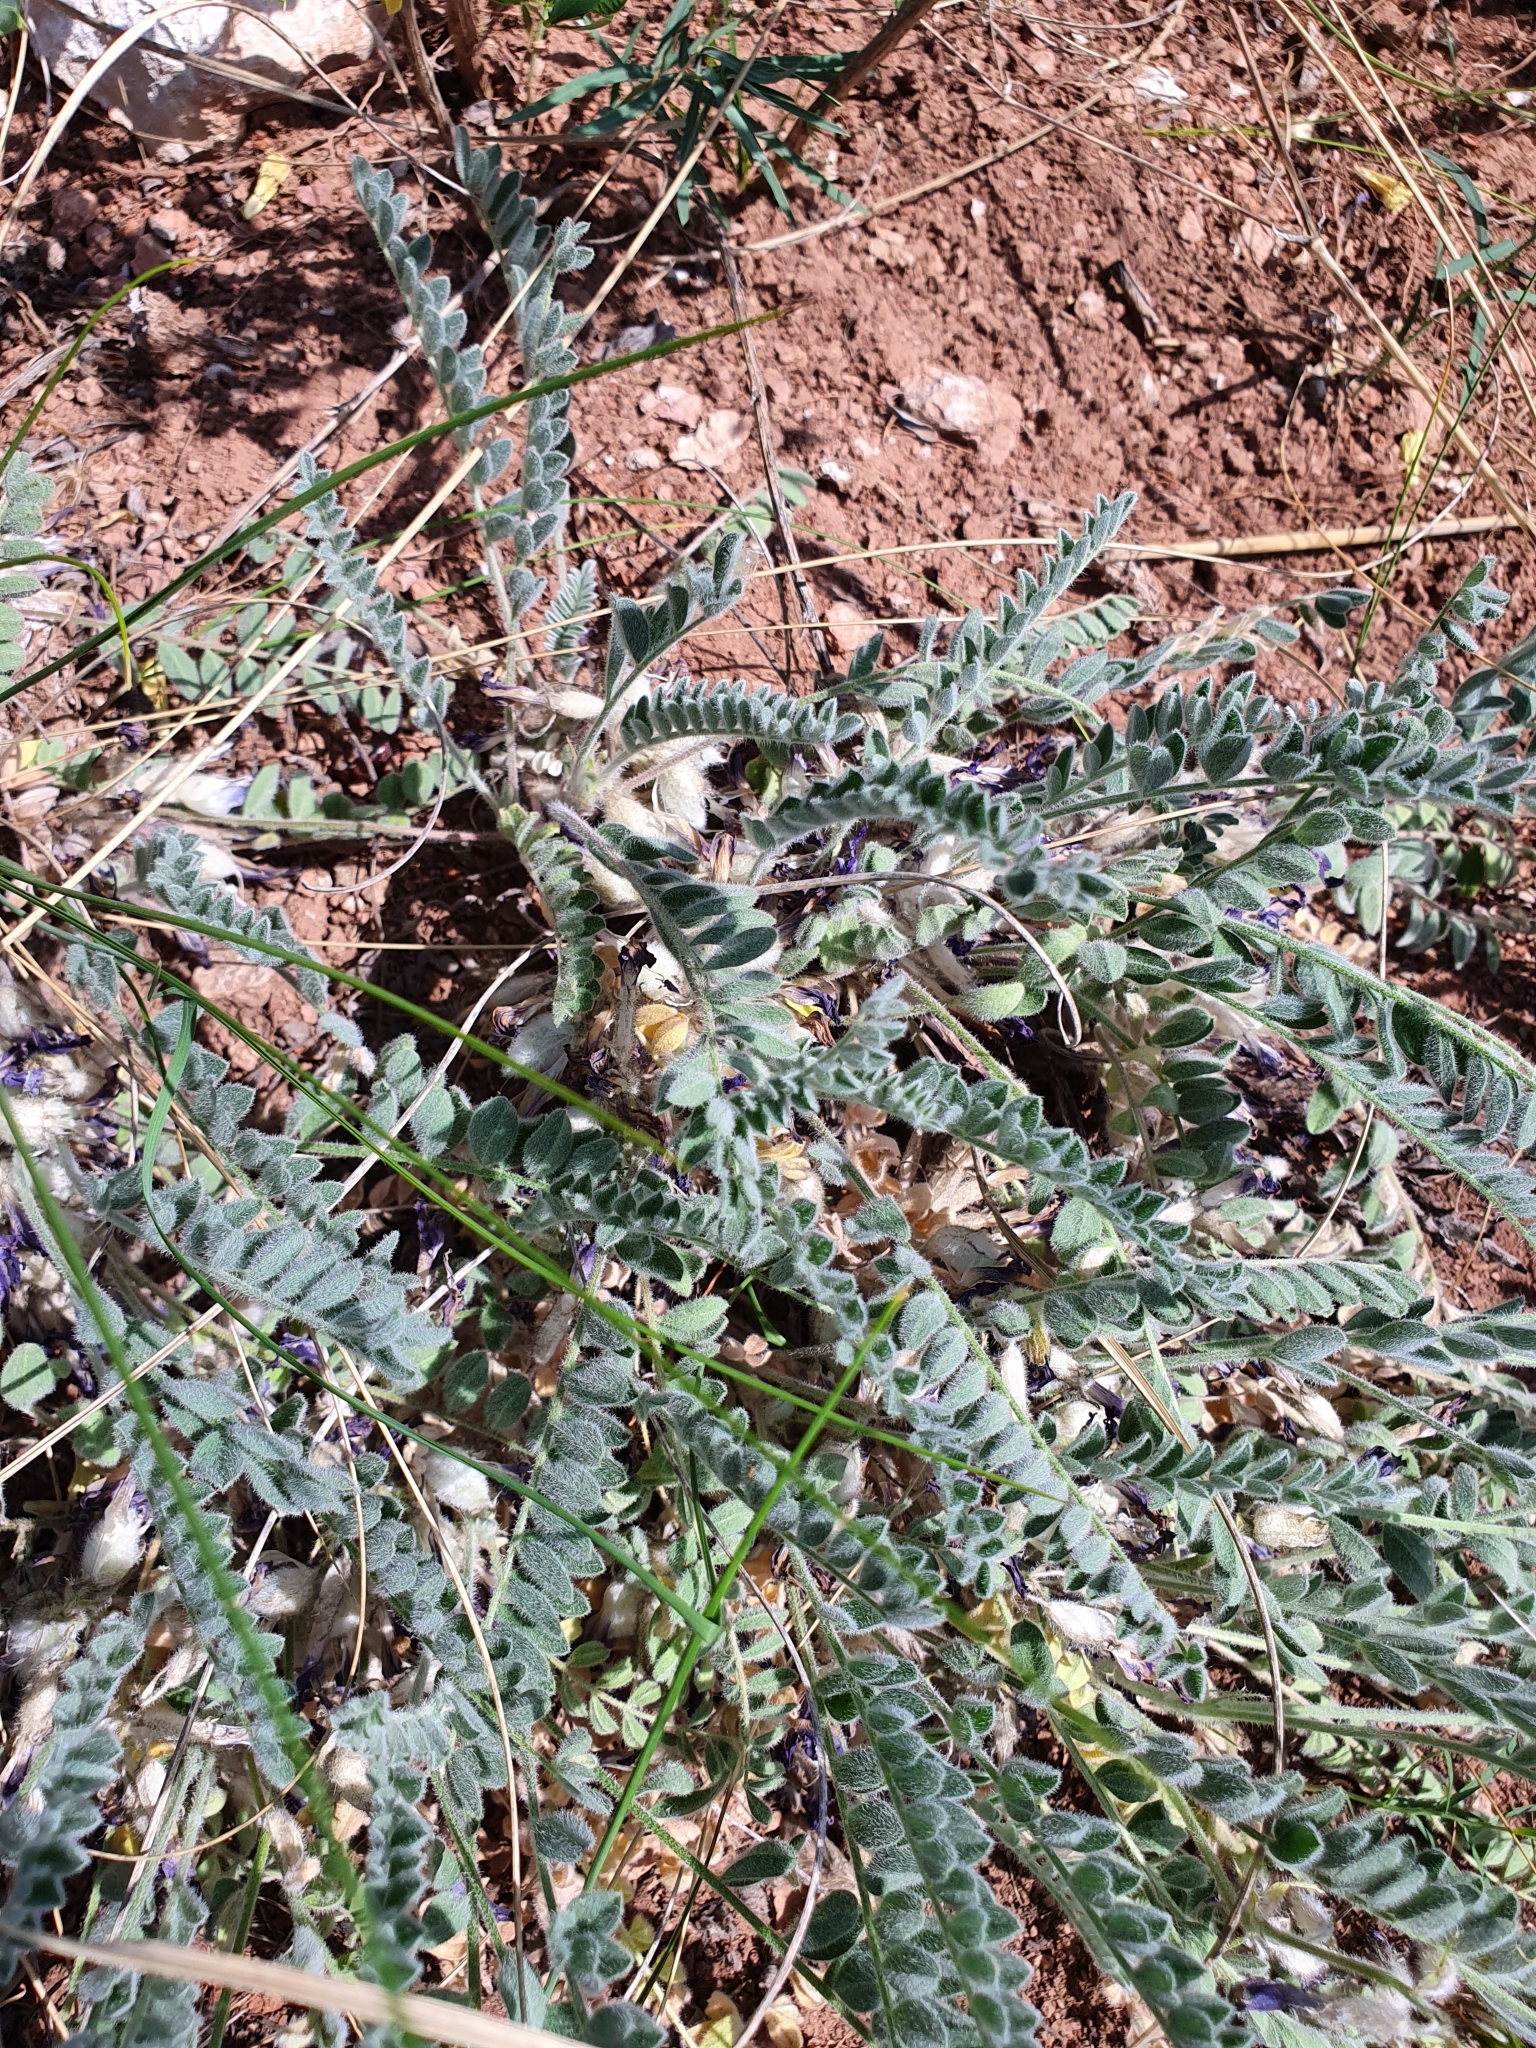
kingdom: Plantae
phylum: Tracheophyta
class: Magnoliopsida
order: Fabales
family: Fabaceae
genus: Astragalus
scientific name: Astragalus testiculatus
